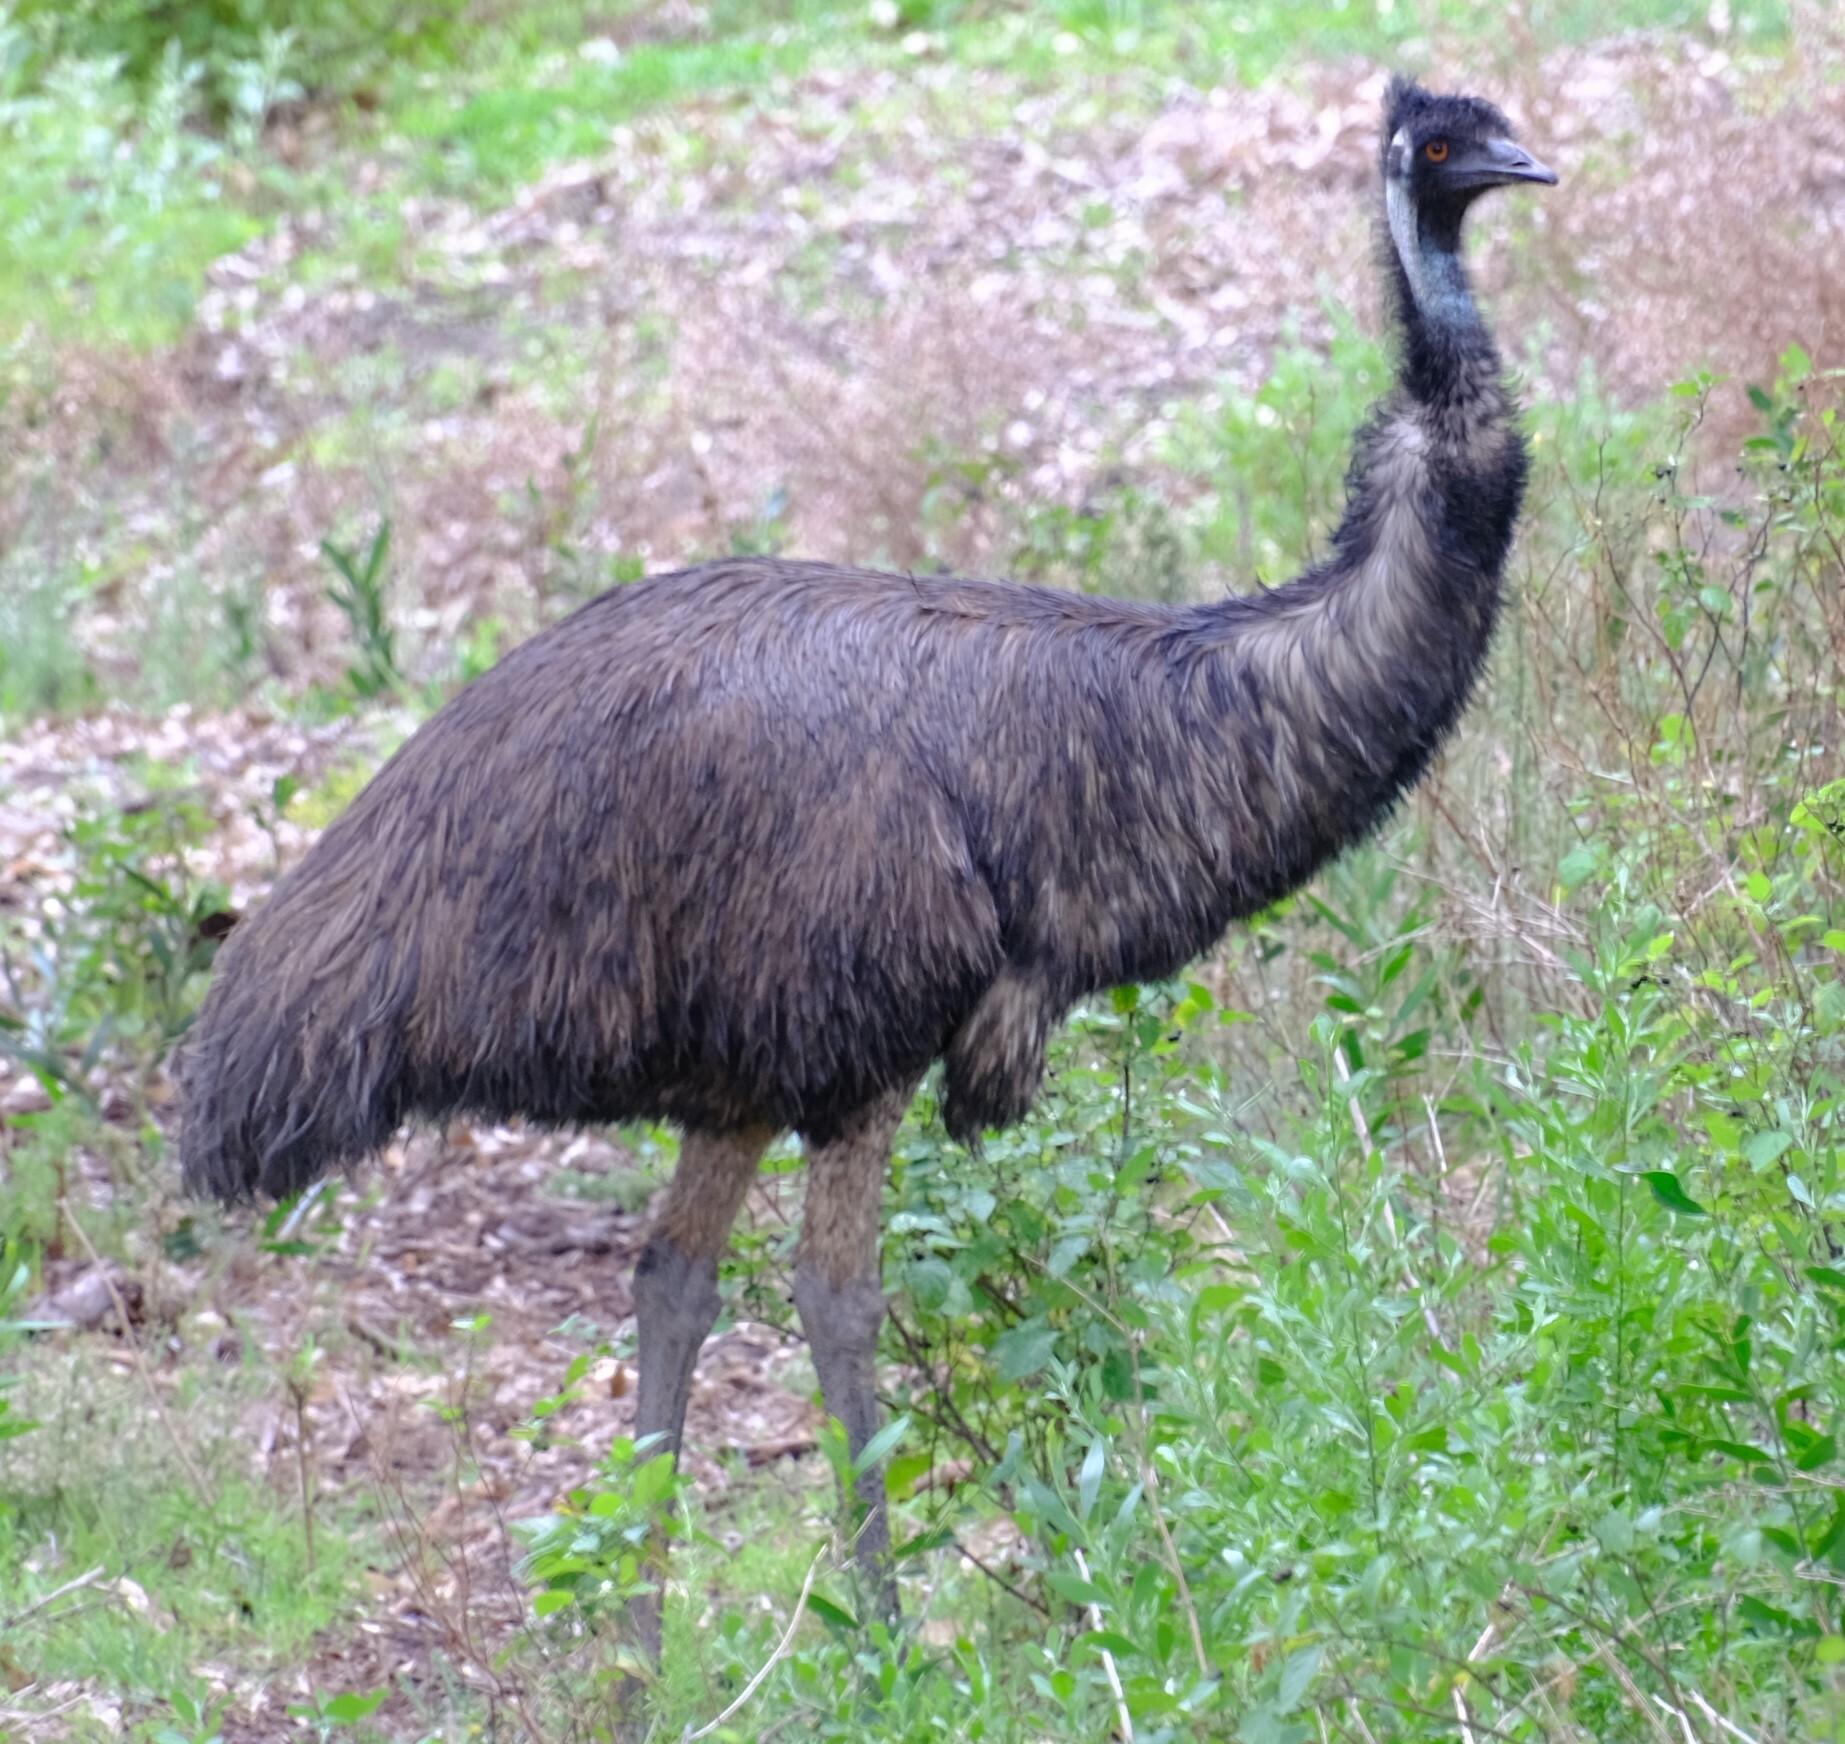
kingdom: Animalia
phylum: Chordata
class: Aves
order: Casuariiformes
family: Dromaiidae
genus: Dromaius
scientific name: Dromaius novaehollandiae
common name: Emu
